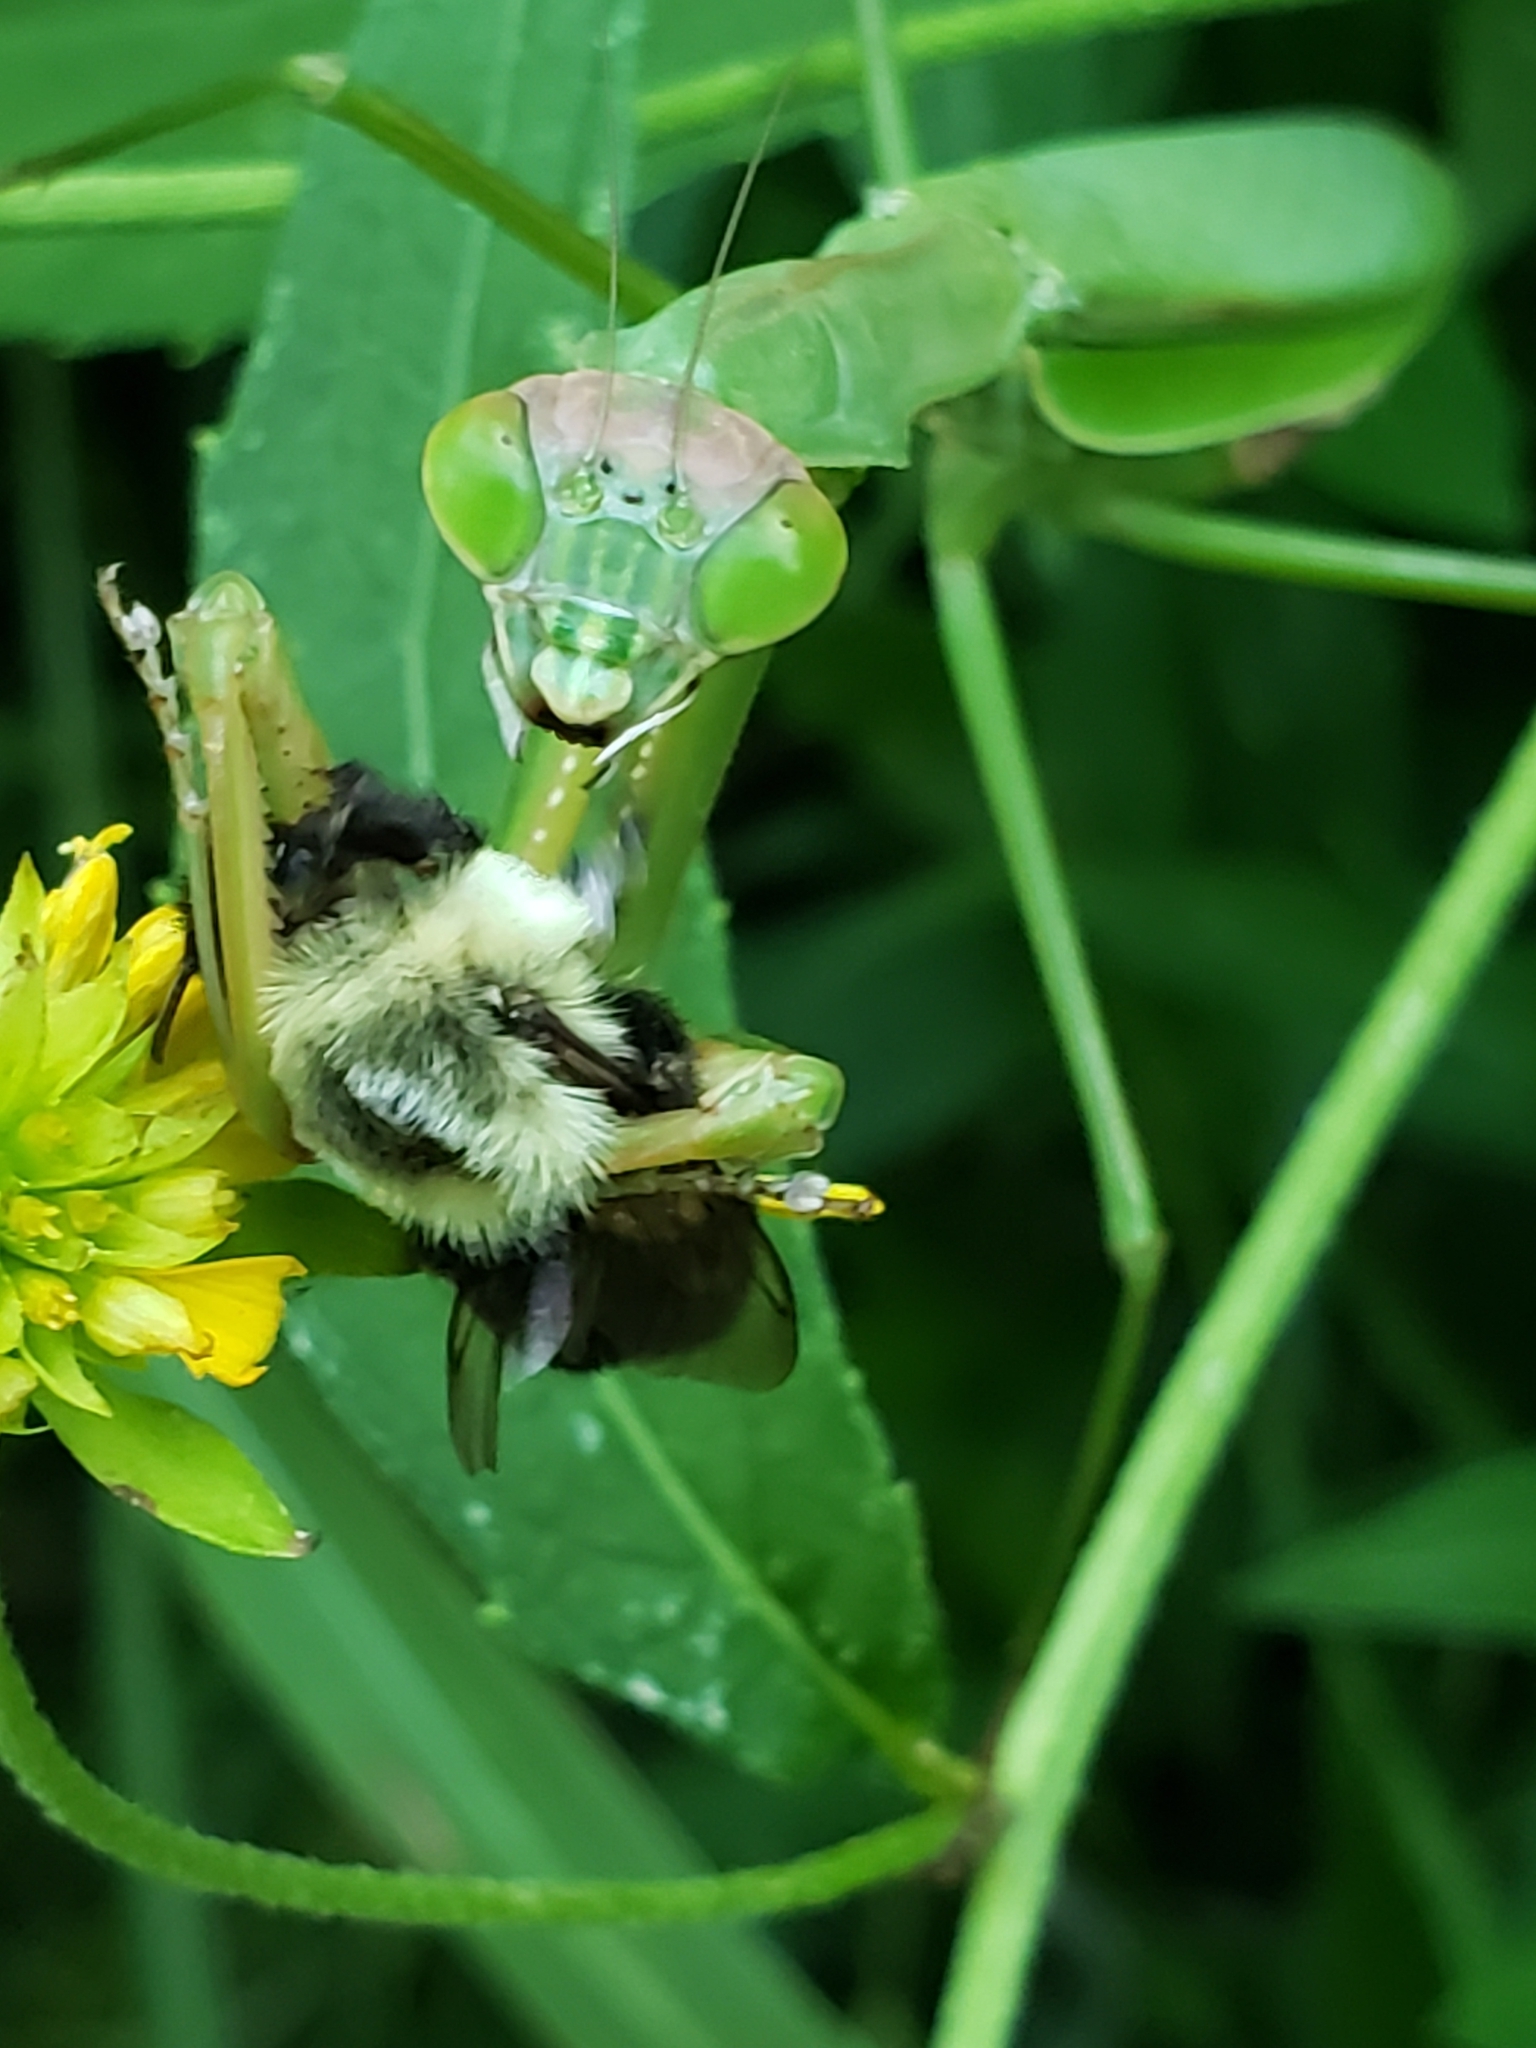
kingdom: Animalia
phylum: Arthropoda
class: Insecta
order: Hymenoptera
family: Apidae
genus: Bombus
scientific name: Bombus impatiens
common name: Common eastern bumble bee
